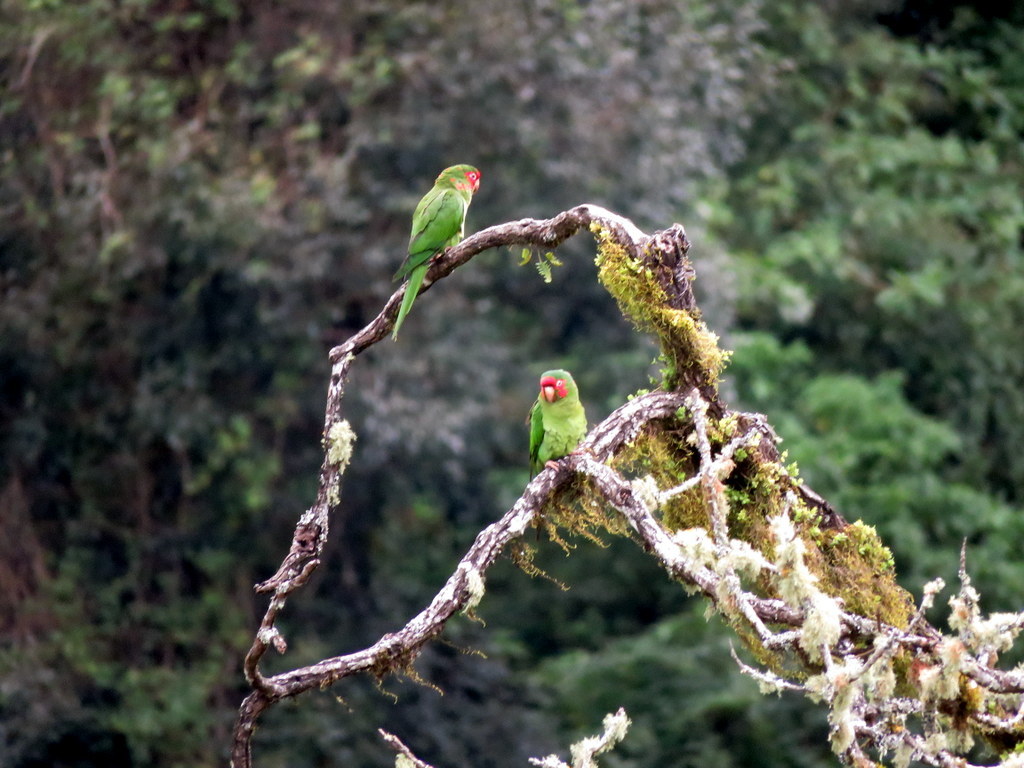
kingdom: Animalia
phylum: Chordata
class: Aves
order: Psittaciformes
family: Psittacidae
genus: Aratinga
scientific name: Aratinga mitrata
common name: Mitred parakeet
